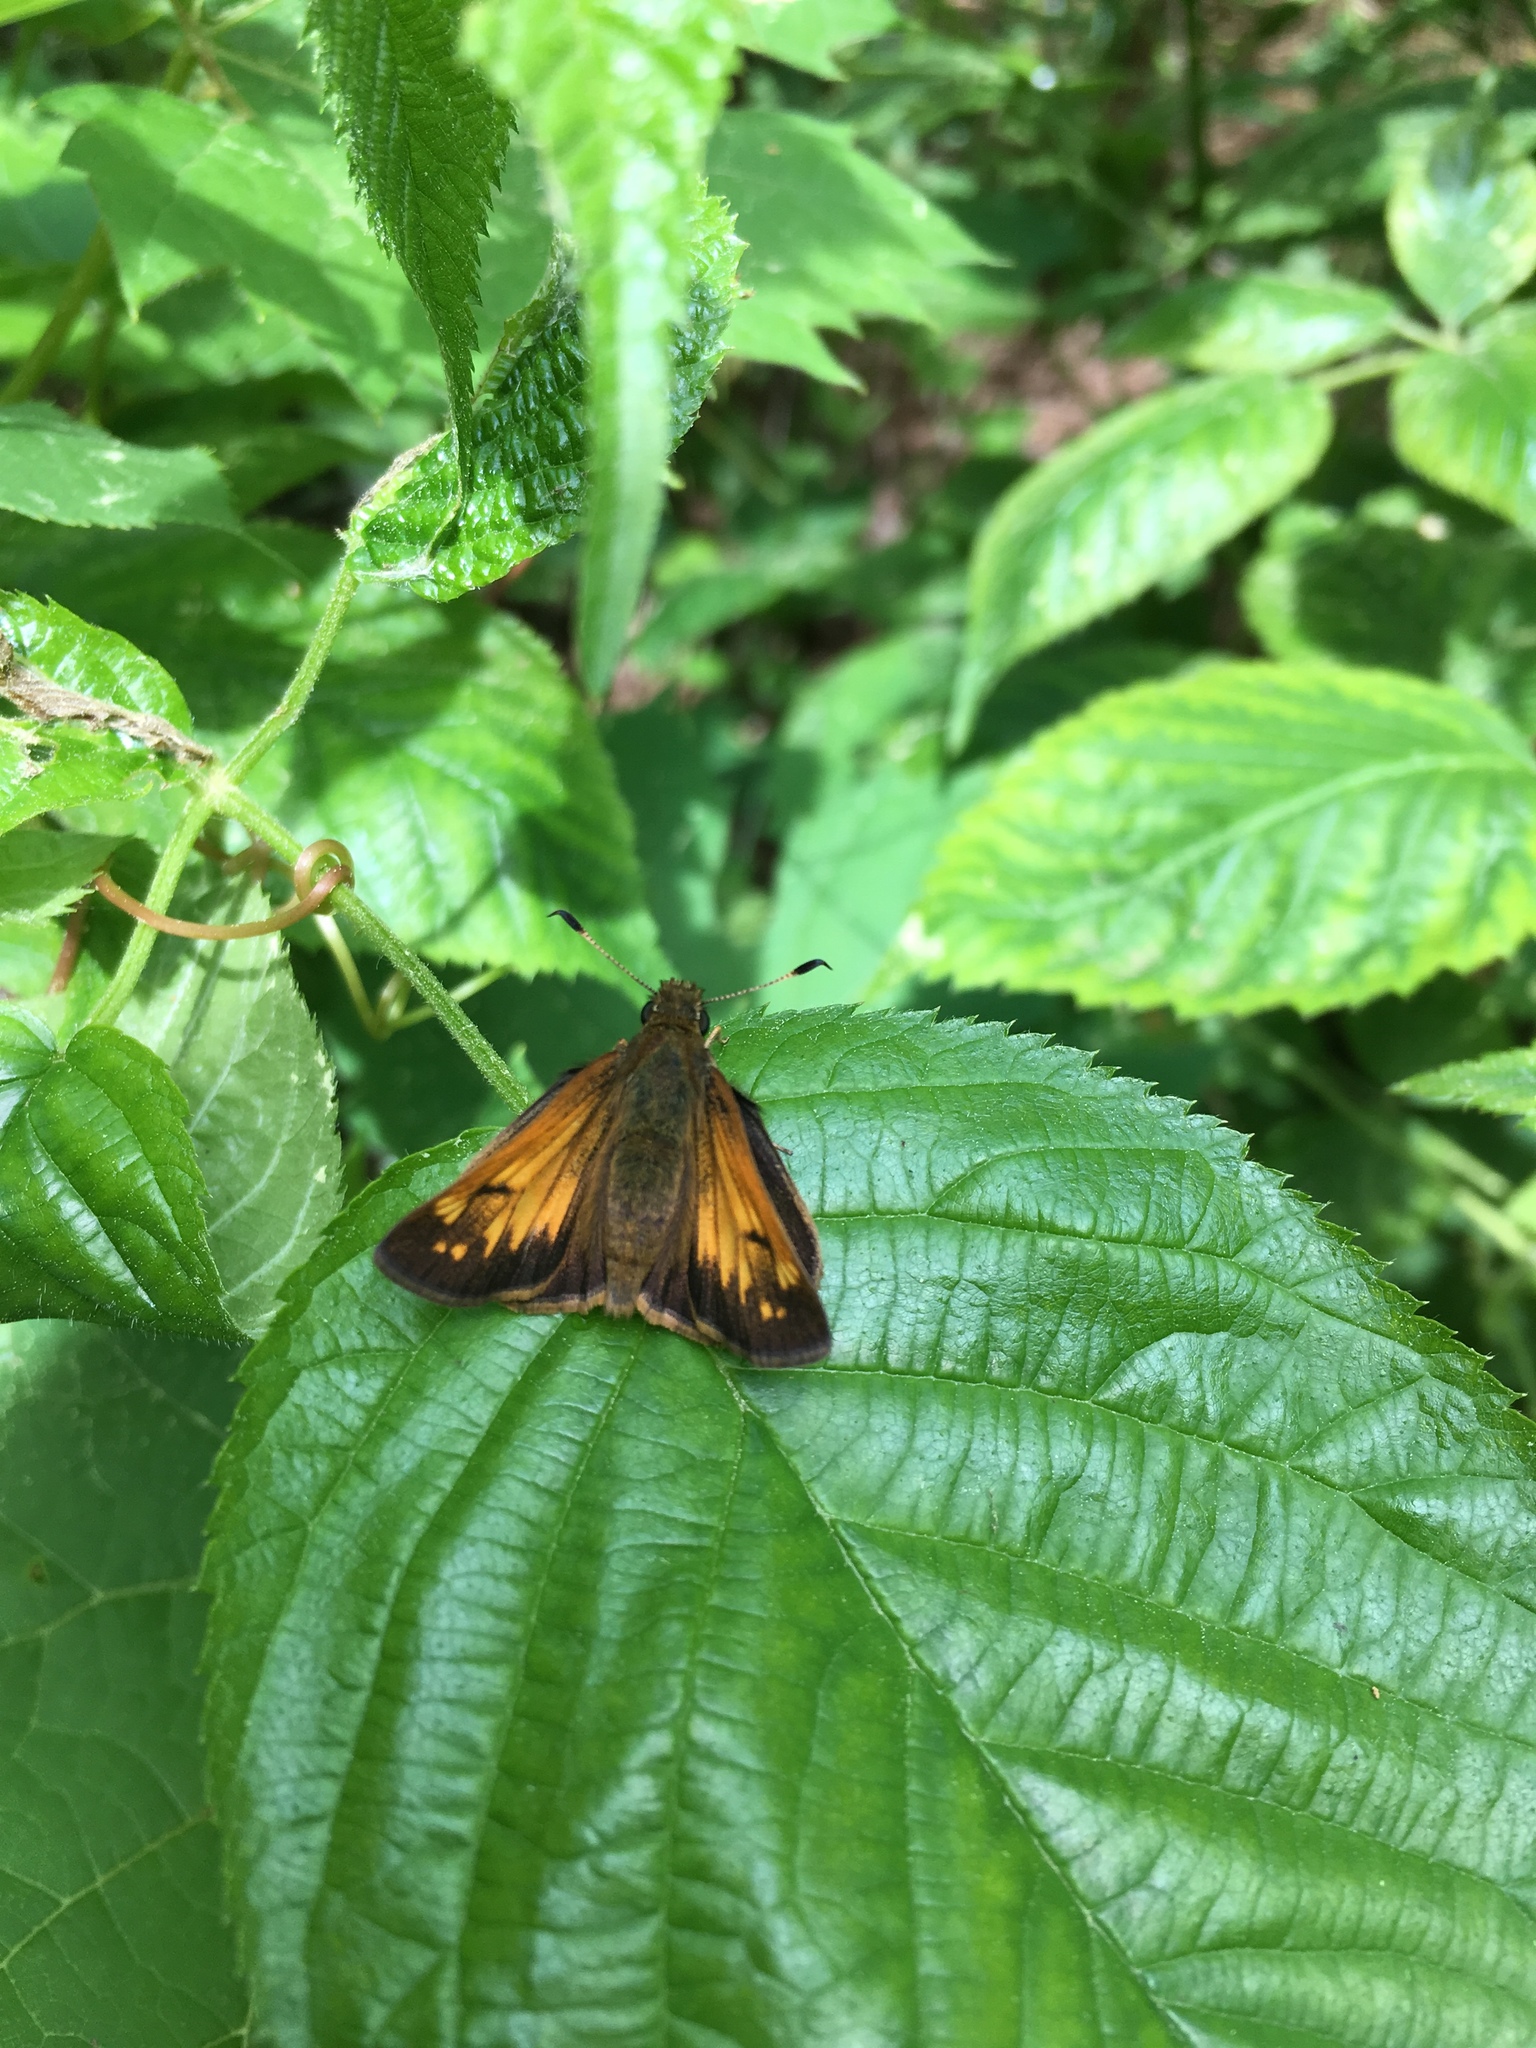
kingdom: Animalia
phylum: Arthropoda
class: Insecta
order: Lepidoptera
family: Hesperiidae
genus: Lon
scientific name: Lon hobomok
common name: Hobomok skipper
